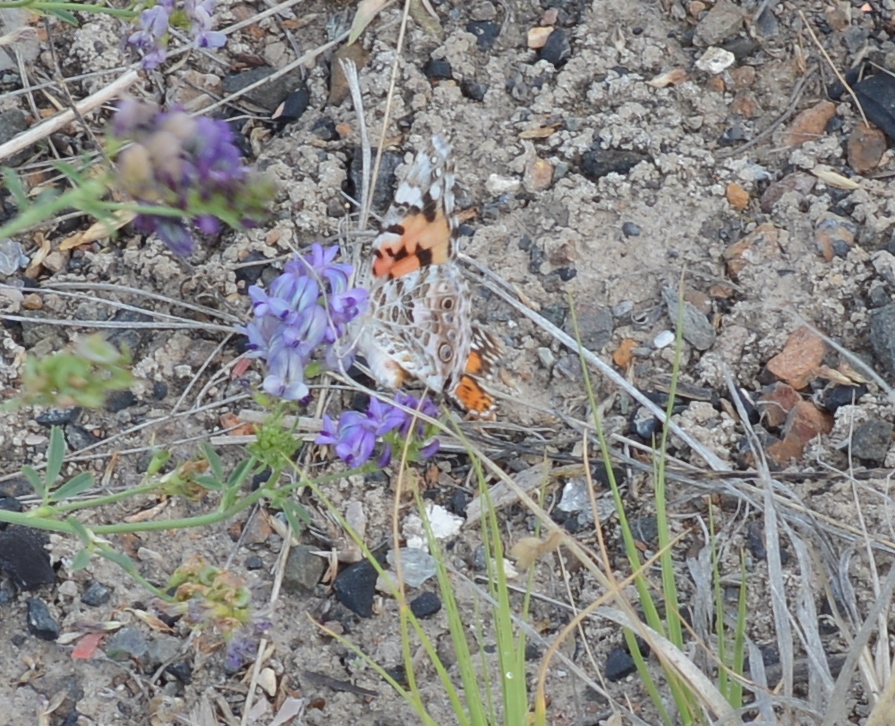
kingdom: Animalia
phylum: Arthropoda
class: Insecta
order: Lepidoptera
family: Nymphalidae
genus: Vanessa
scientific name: Vanessa cardui
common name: Painted lady
